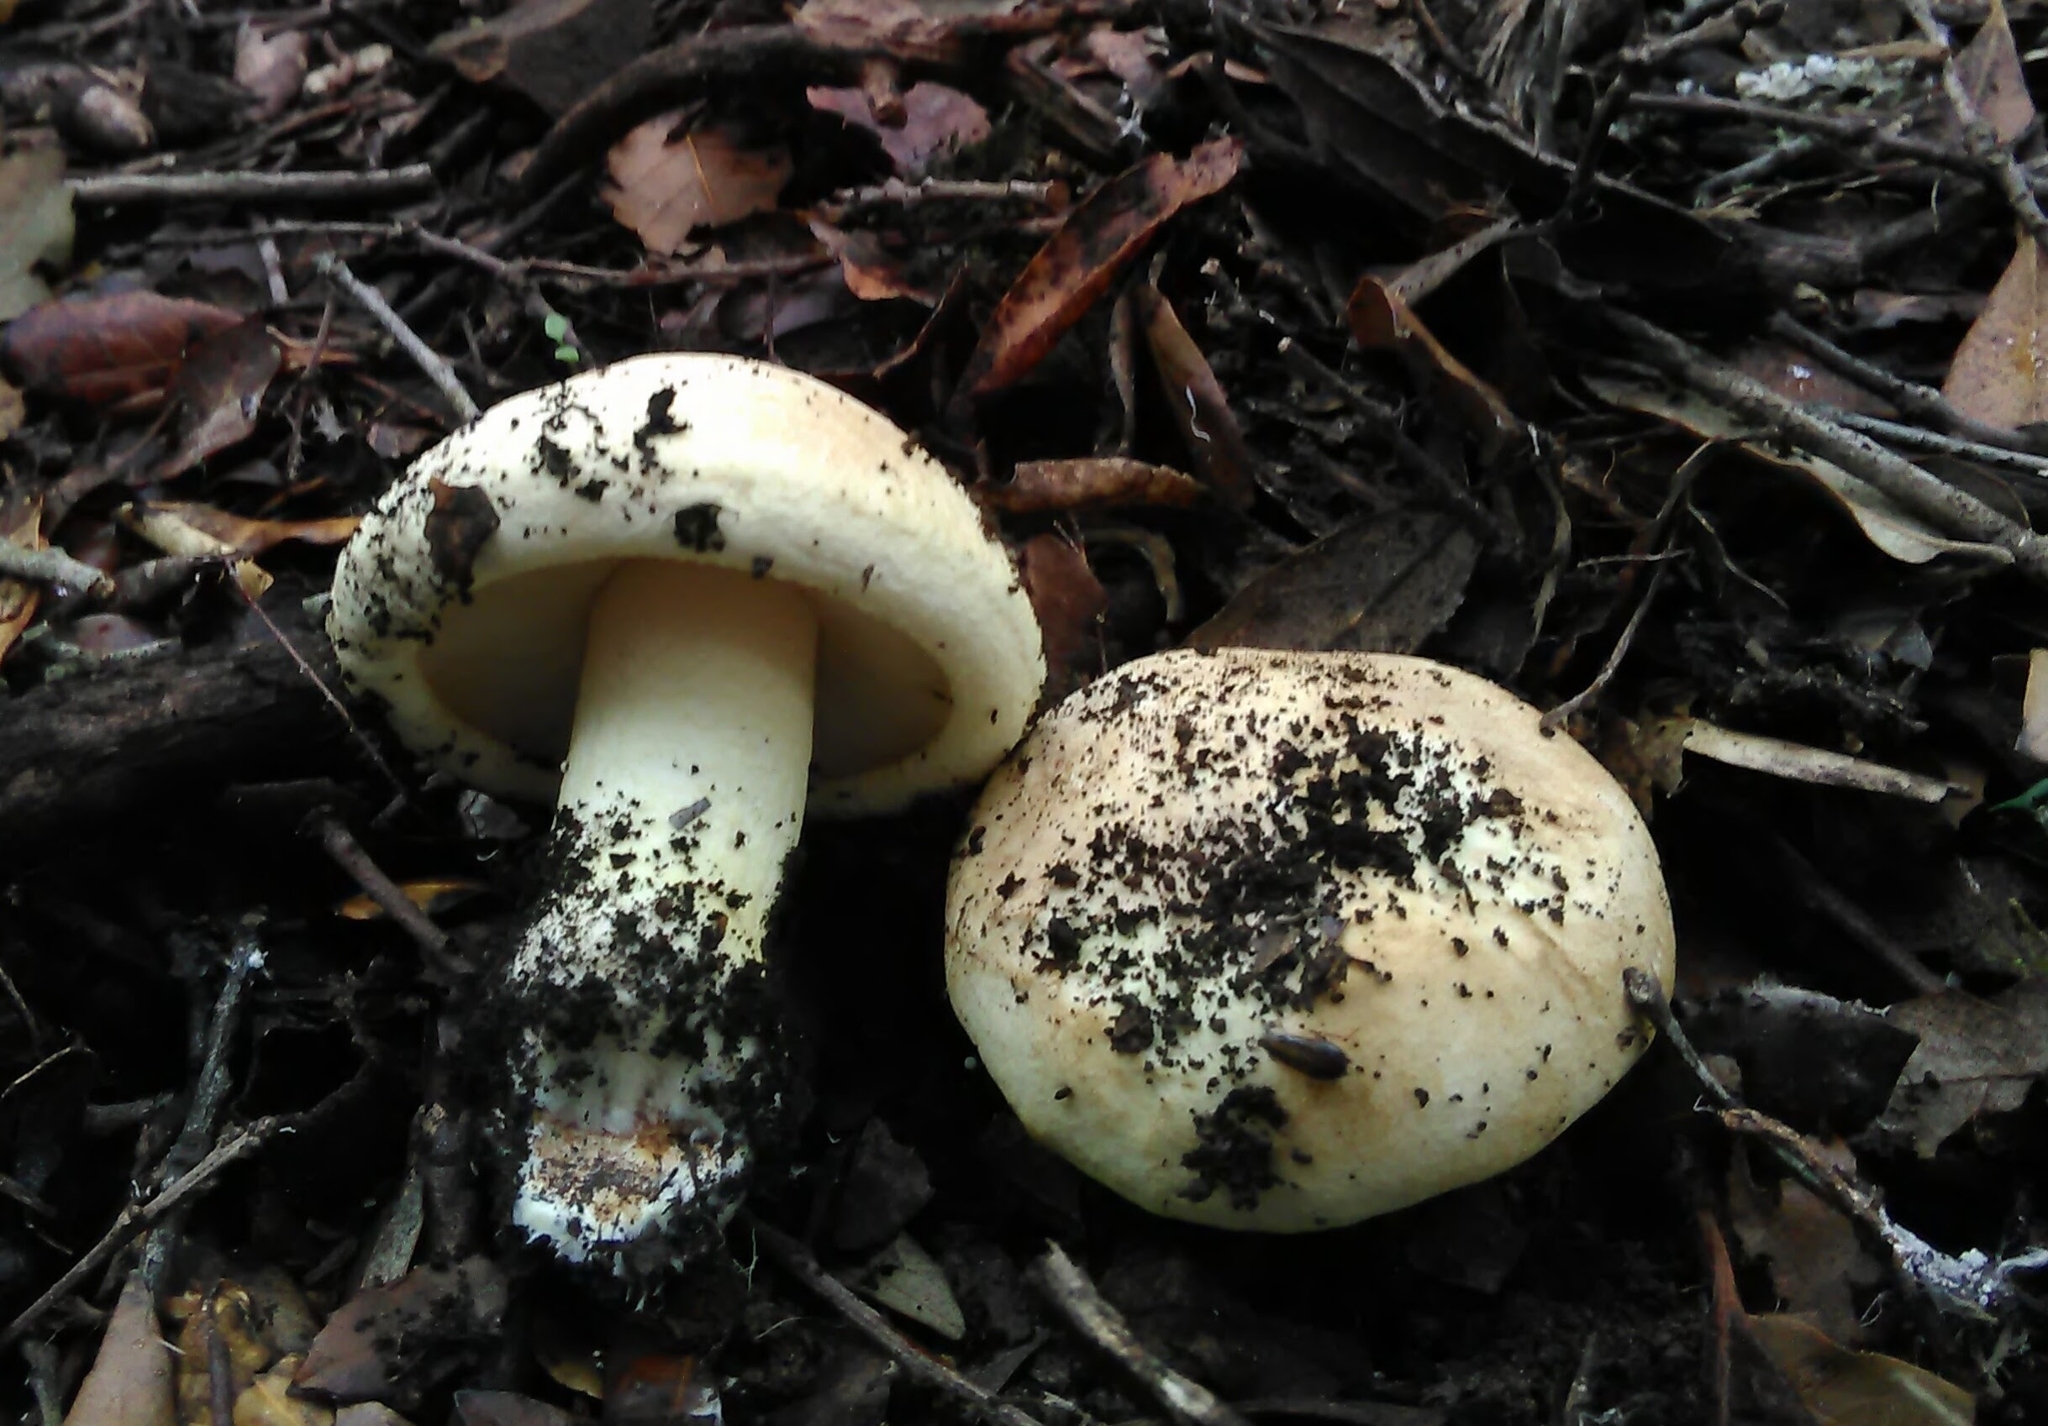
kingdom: Fungi
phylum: Basidiomycota
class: Agaricomycetes
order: Agaricales
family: Tricholomataceae
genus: Tricholoma
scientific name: Tricholoma acerbum
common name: Bitter knight
